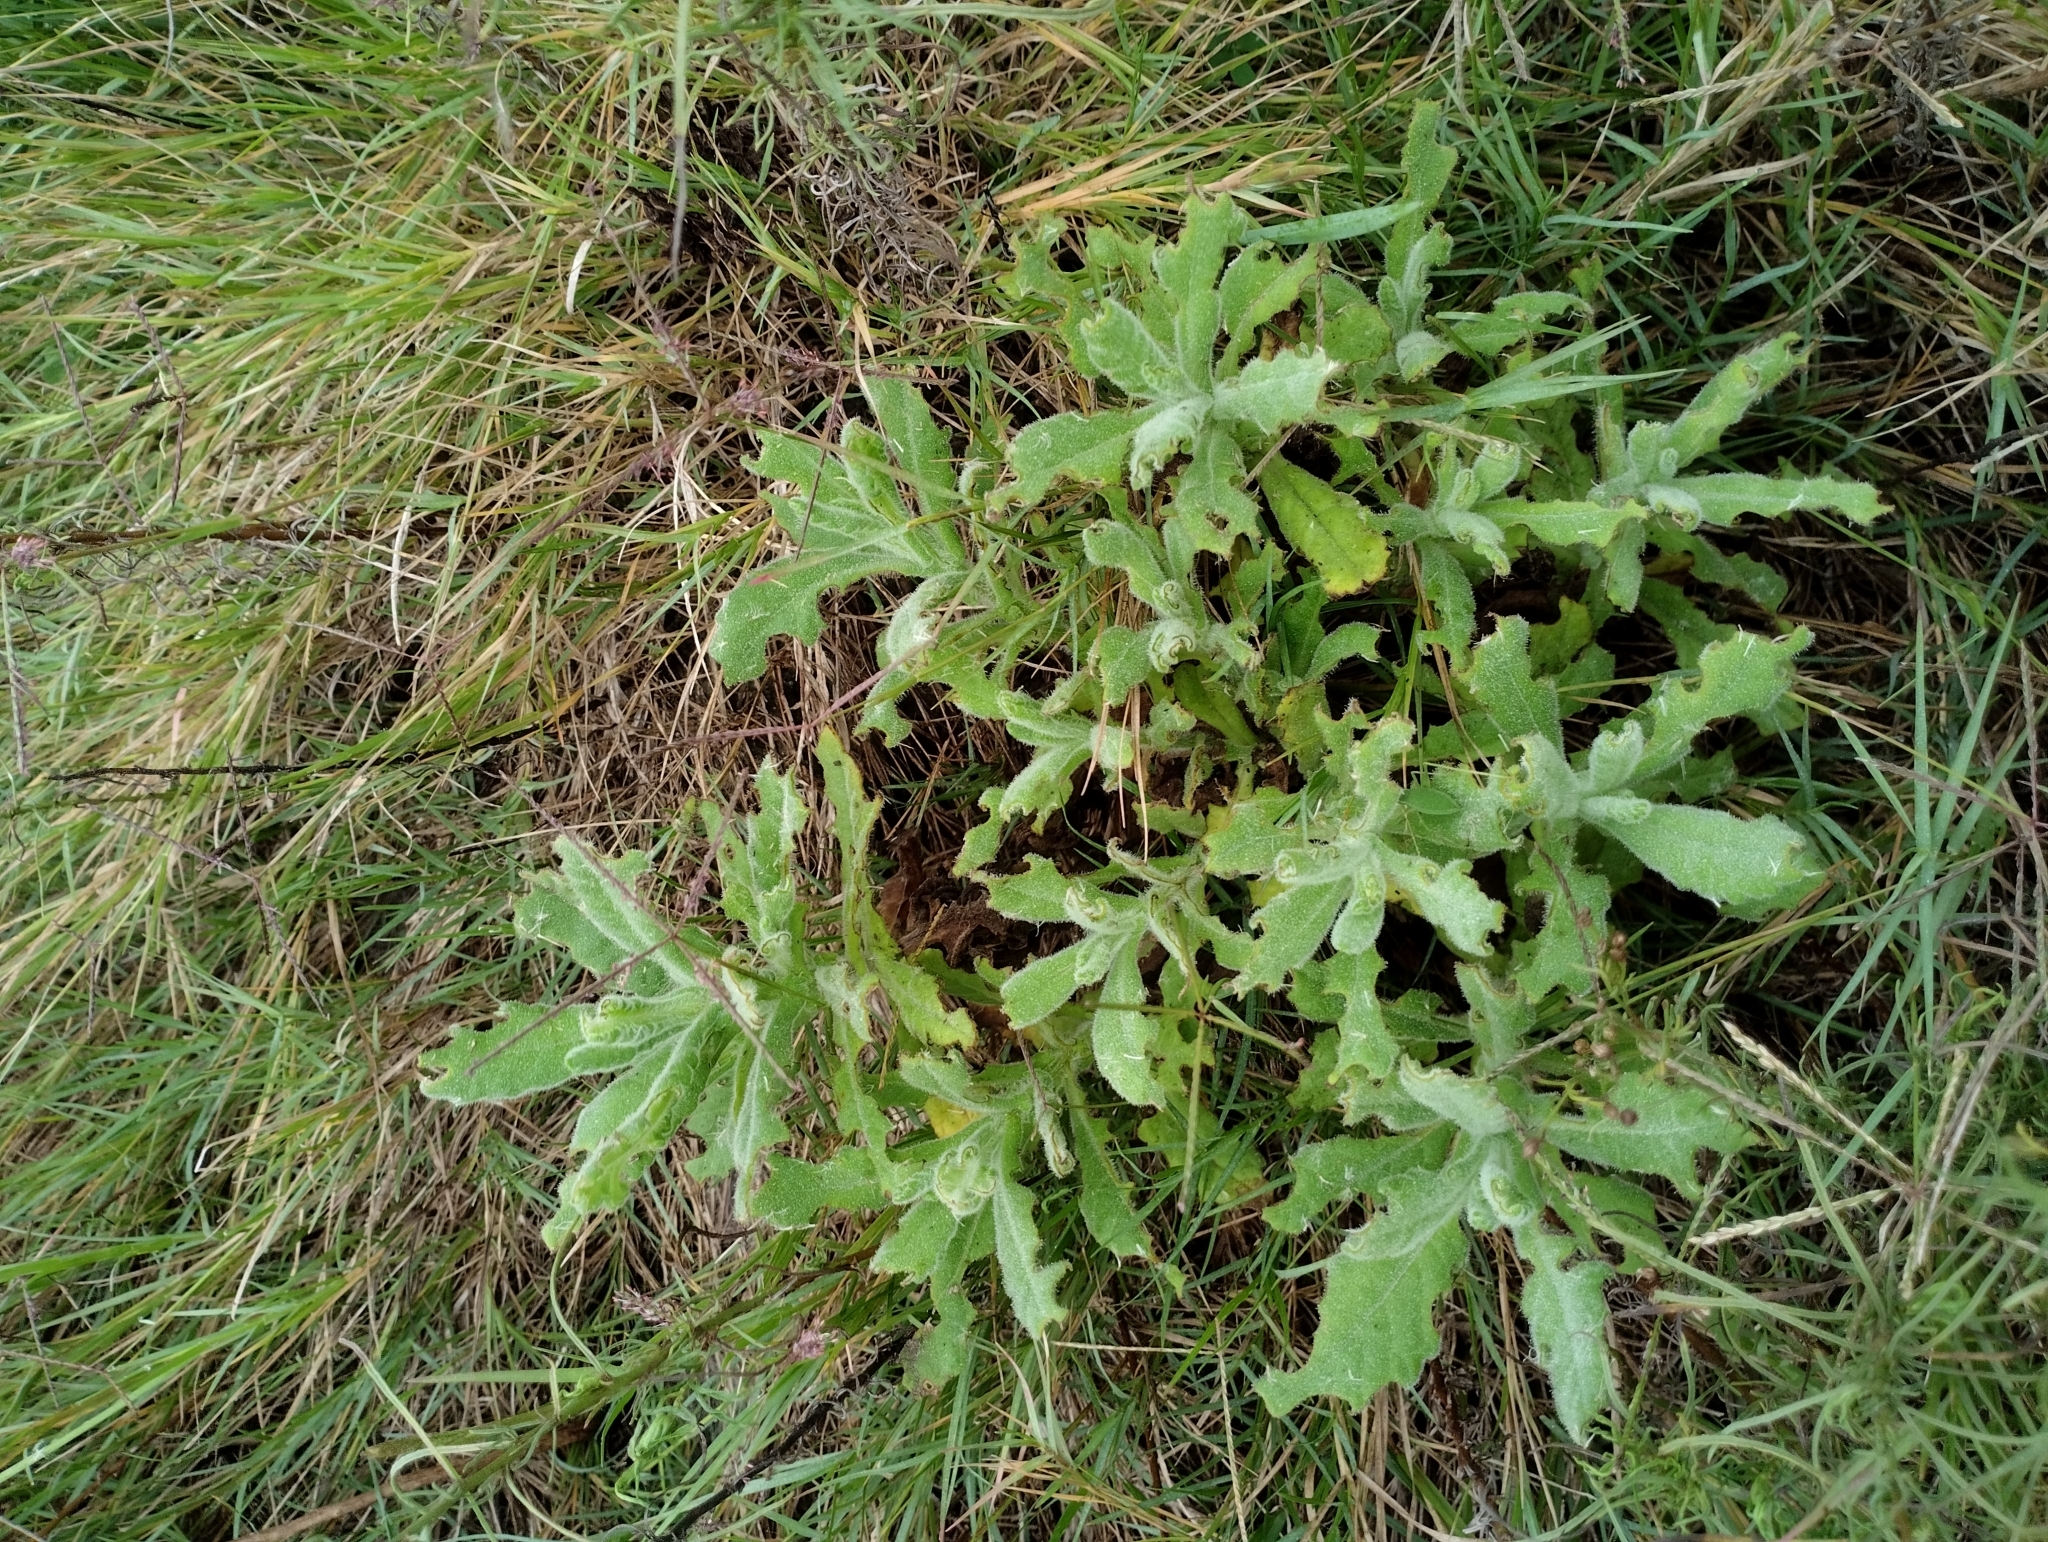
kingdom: Plantae
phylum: Tracheophyta
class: Magnoliopsida
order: Asterales
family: Asteraceae
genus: Senecio
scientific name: Senecio selloi
